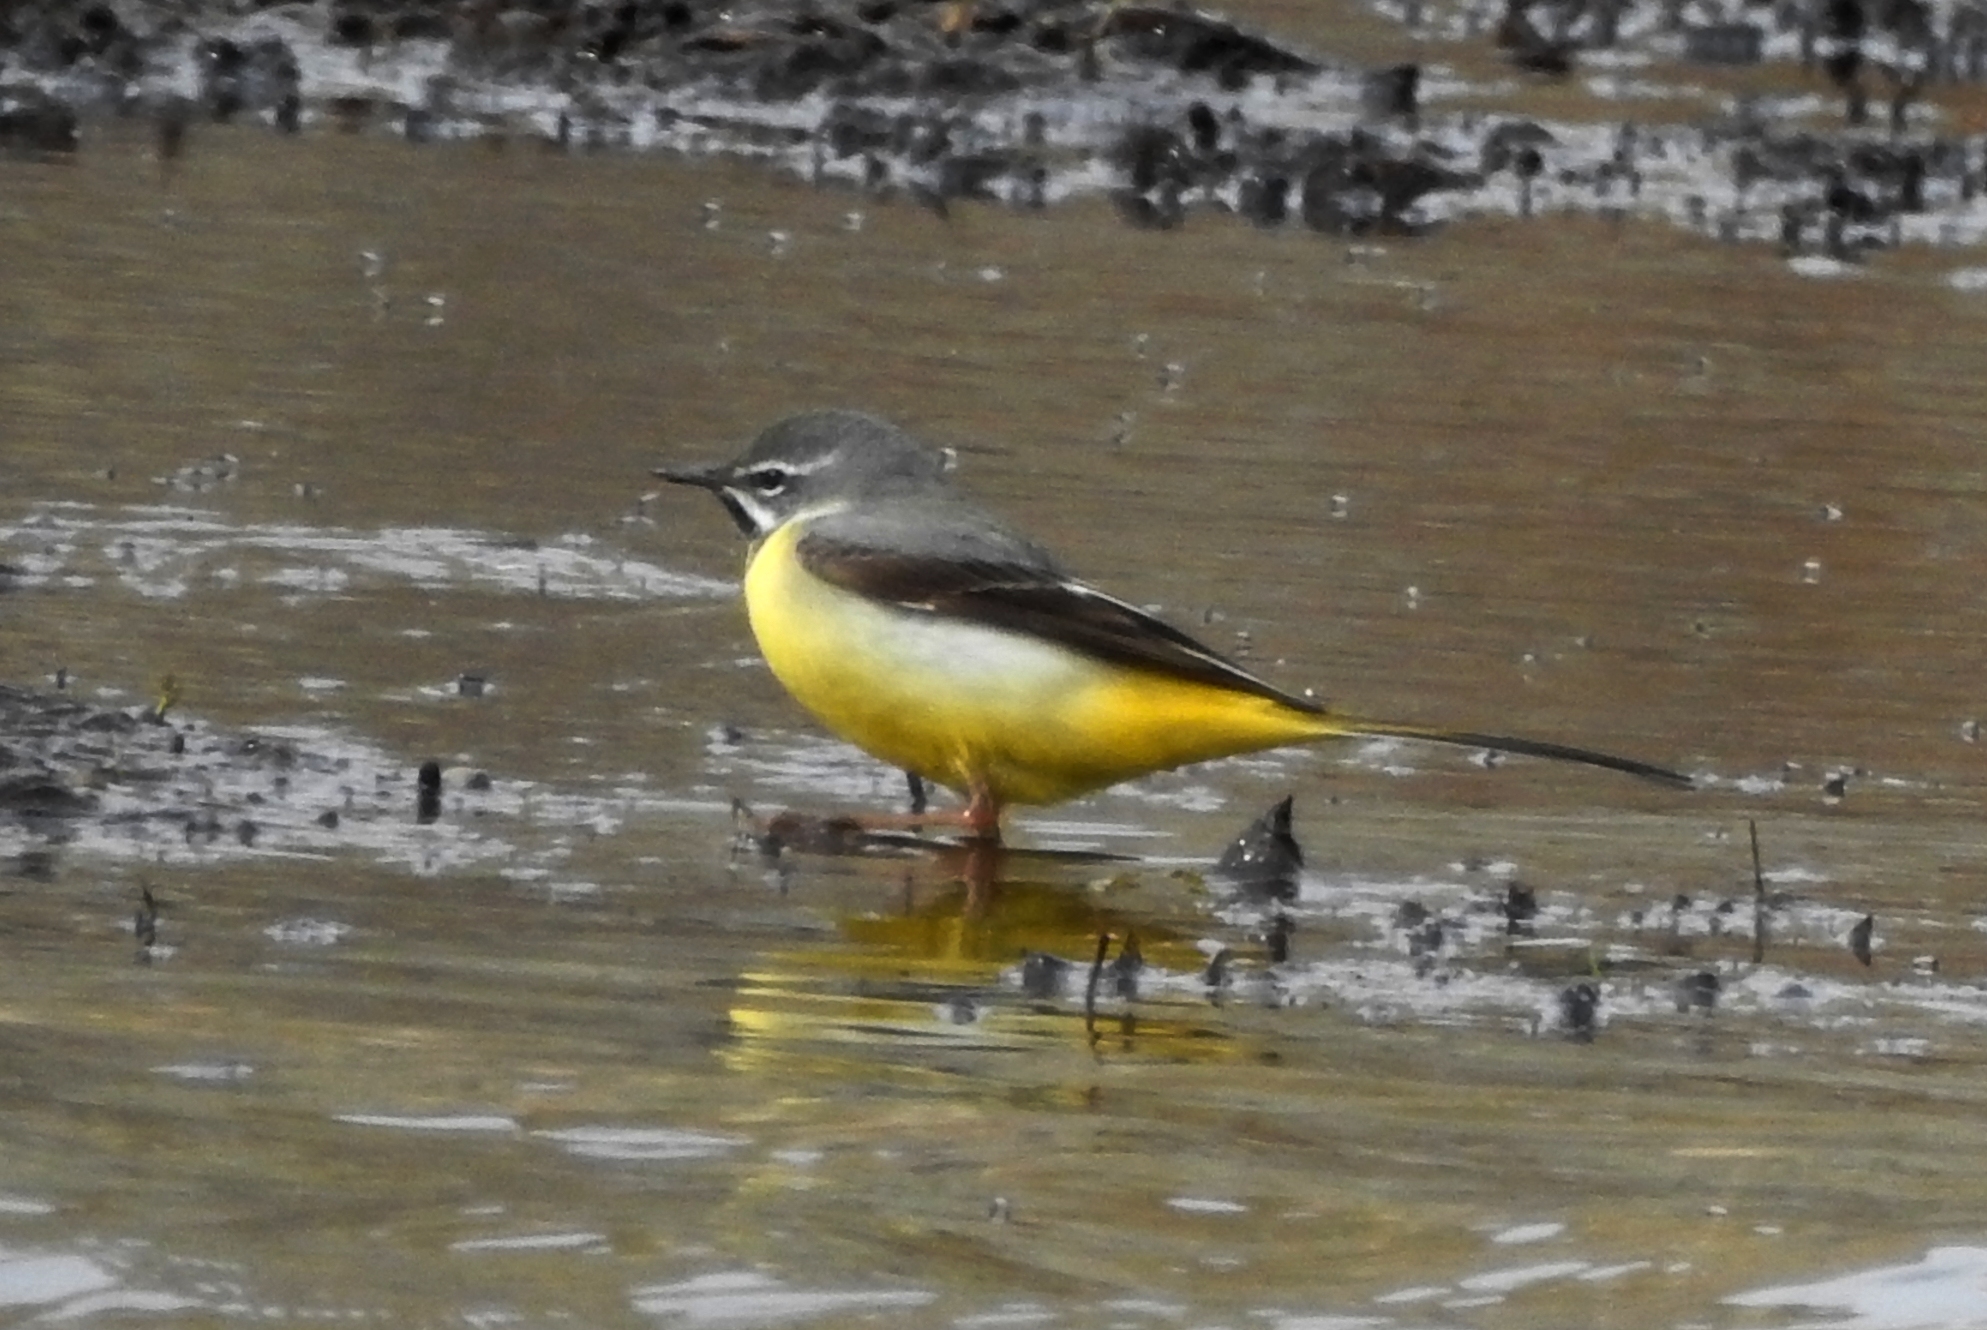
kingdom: Animalia
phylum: Chordata
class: Aves
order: Passeriformes
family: Motacillidae
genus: Motacilla
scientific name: Motacilla cinerea
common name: Grey wagtail
